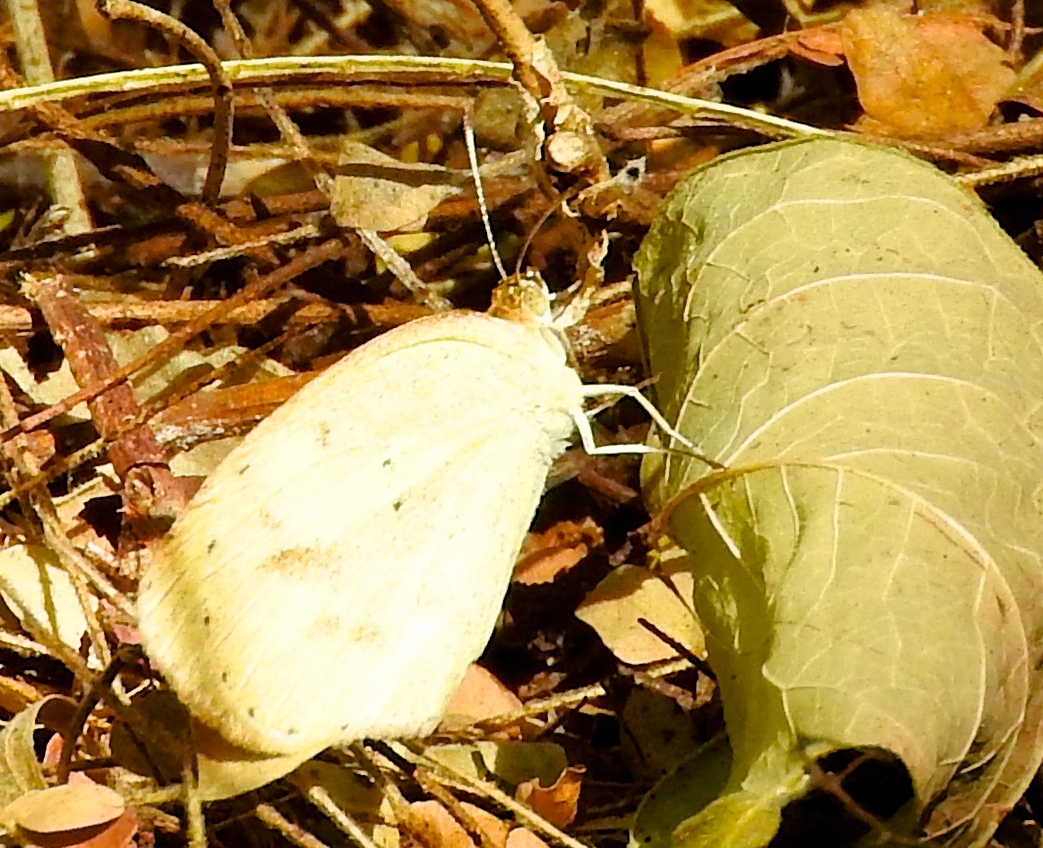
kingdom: Animalia
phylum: Arthropoda
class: Insecta
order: Lepidoptera
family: Pieridae
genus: Pyrisitia
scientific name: Pyrisitia nise
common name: Mimosa yellow
